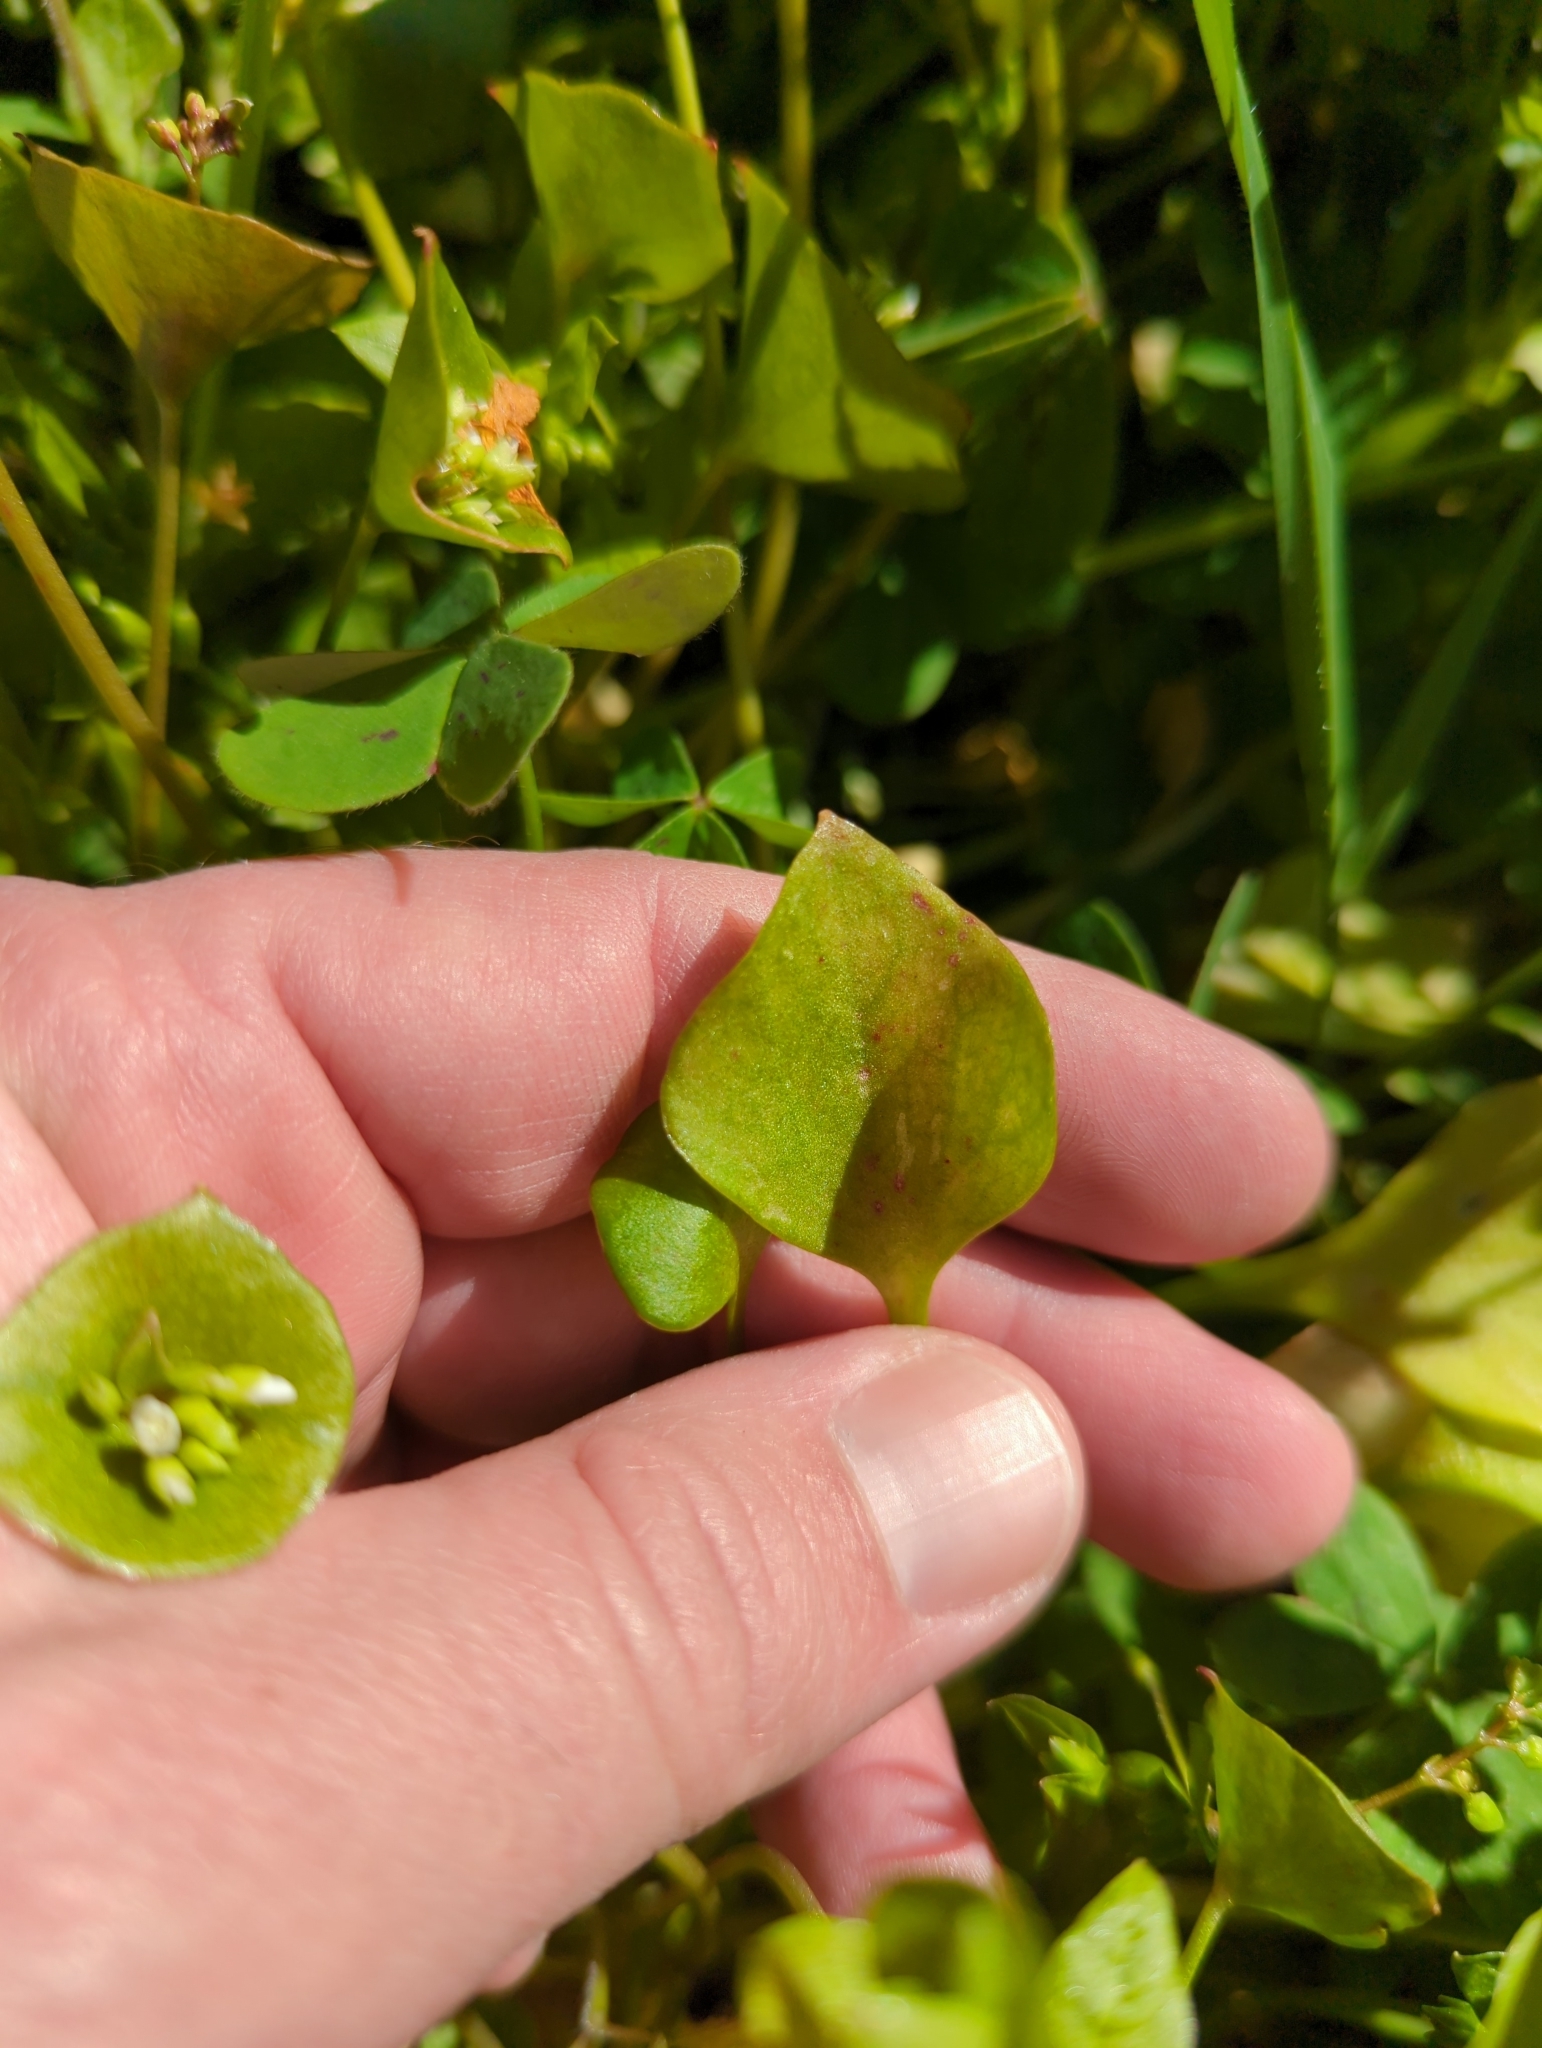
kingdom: Plantae
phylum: Tracheophyta
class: Magnoliopsida
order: Caryophyllales
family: Montiaceae
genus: Claytonia
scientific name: Claytonia perfoliata
